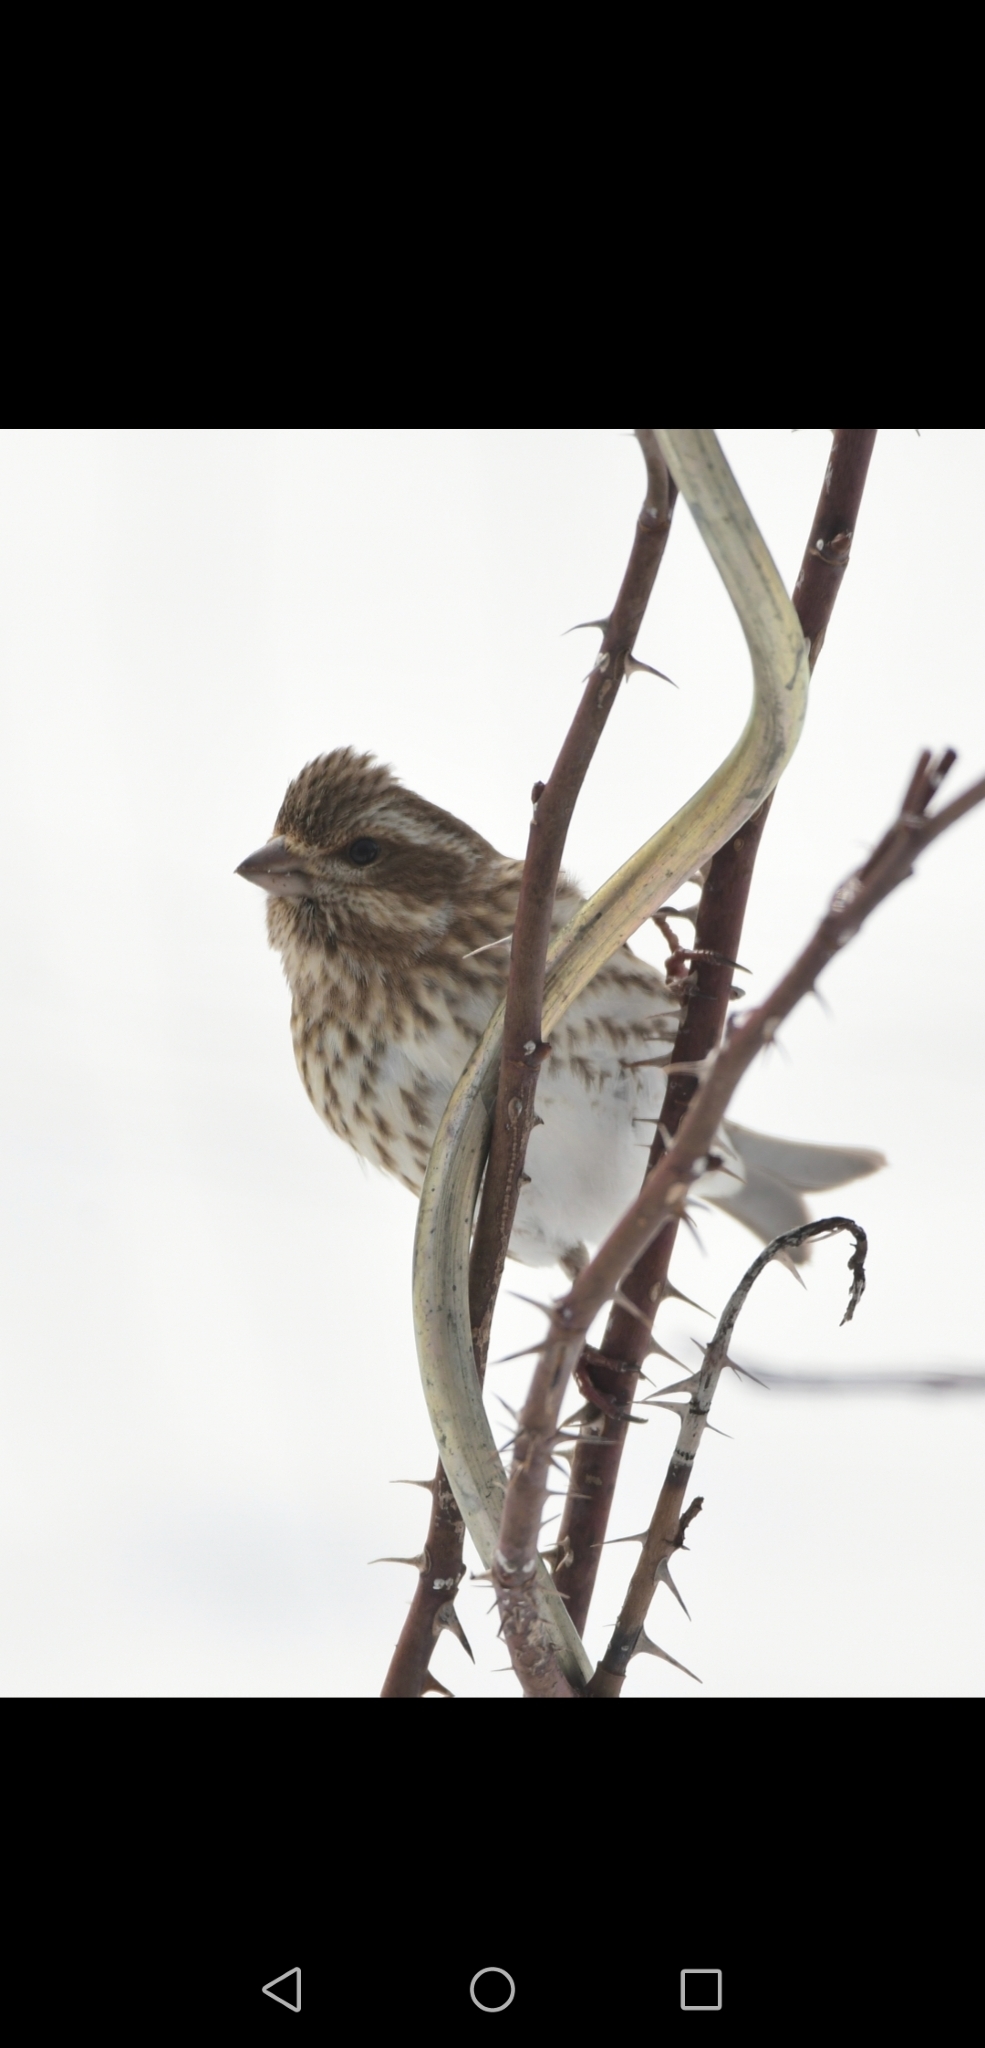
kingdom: Animalia
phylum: Chordata
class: Aves
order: Passeriformes
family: Fringillidae
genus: Haemorhous
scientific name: Haemorhous purpureus
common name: Purple finch
